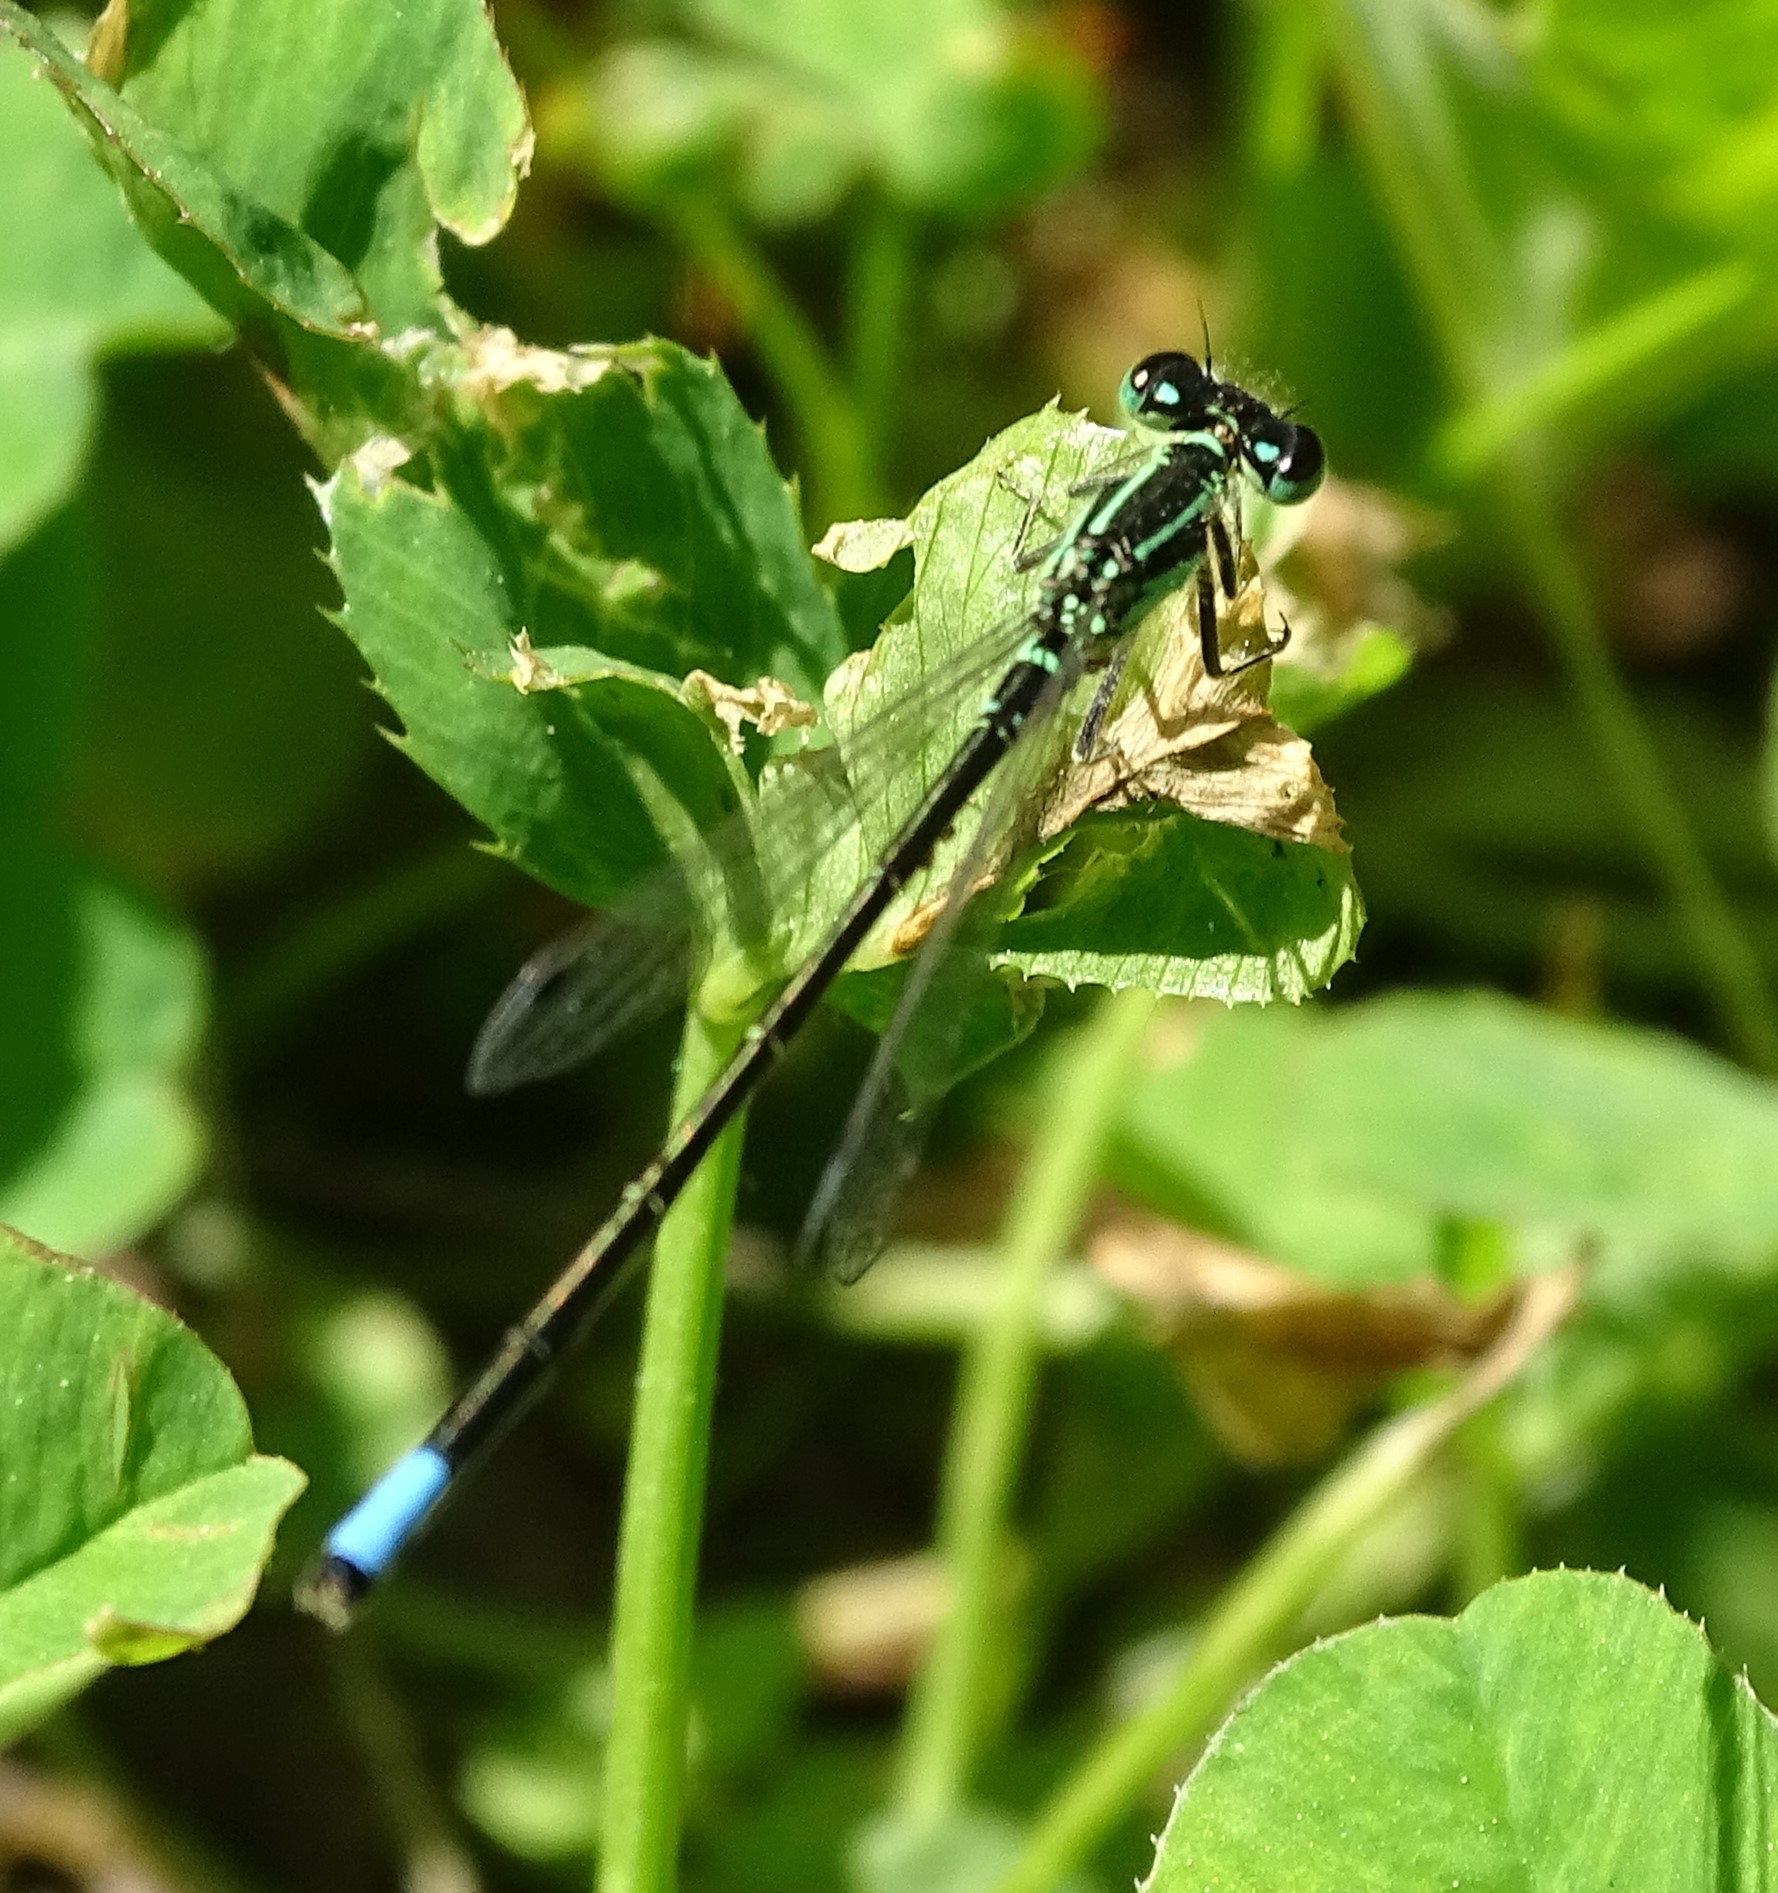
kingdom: Animalia
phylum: Arthropoda
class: Insecta
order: Odonata
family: Coenagrionidae
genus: Ischnura
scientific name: Ischnura verticalis
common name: Eastern forktail
